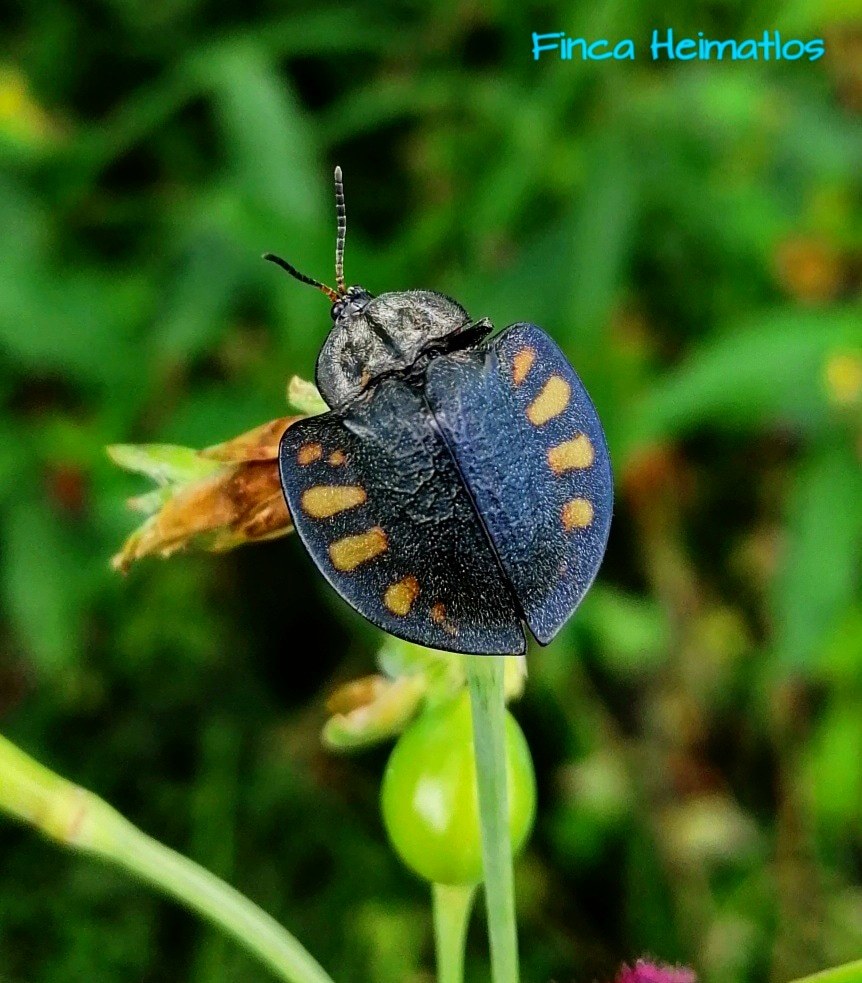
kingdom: Animalia
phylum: Arthropoda
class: Insecta
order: Coleoptera
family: Chrysomelidae
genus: Stolas
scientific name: Stolas
